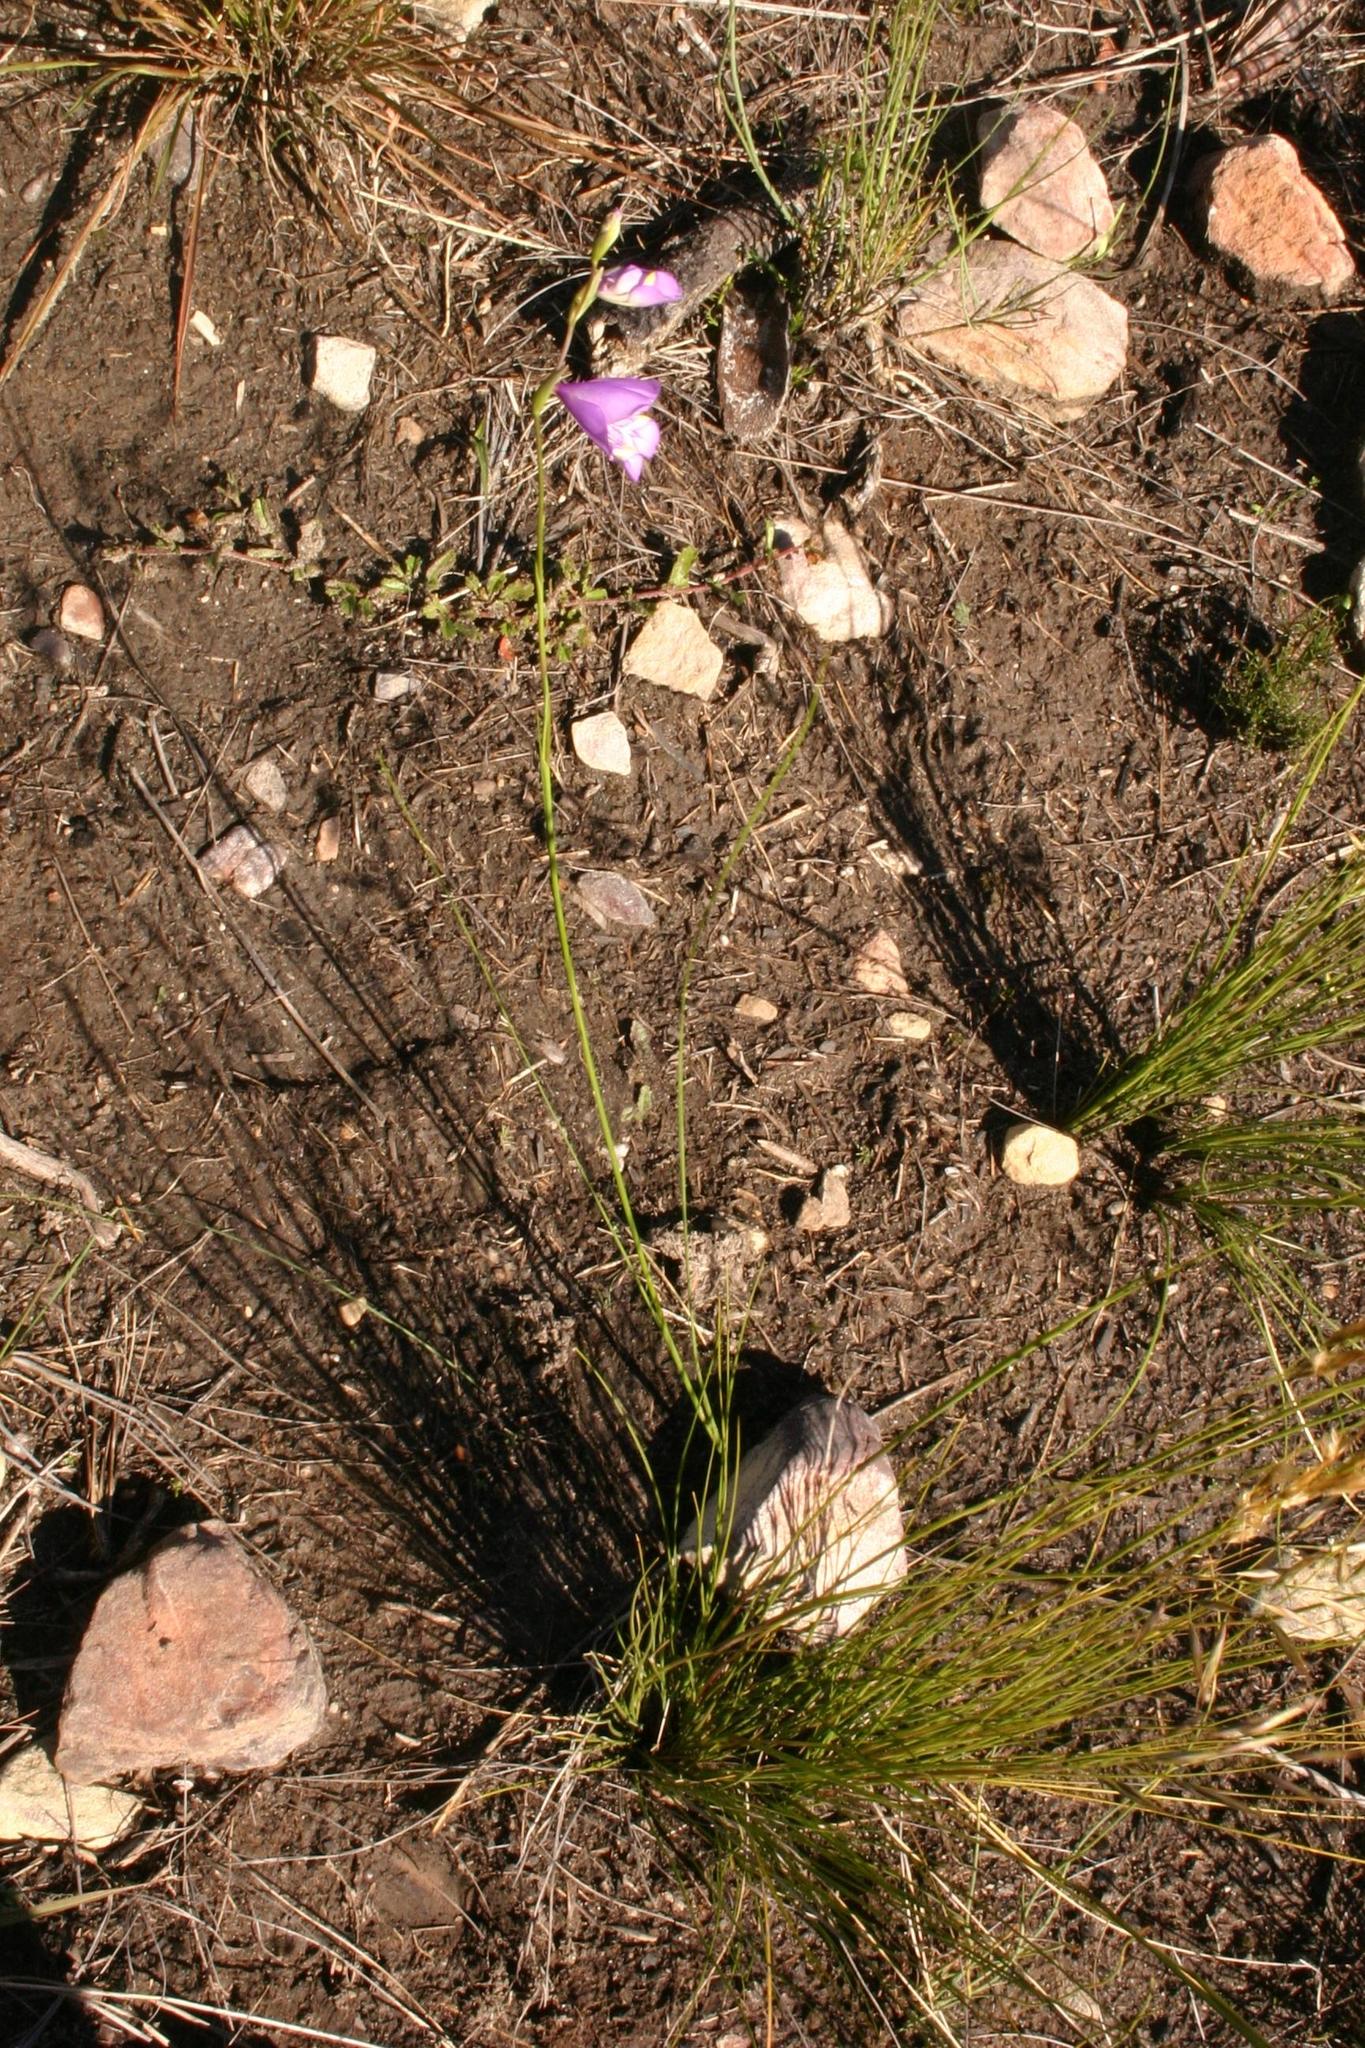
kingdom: Plantae
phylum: Tracheophyta
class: Liliopsida
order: Asparagales
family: Iridaceae
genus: Gladiolus
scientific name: Gladiolus rogersii
